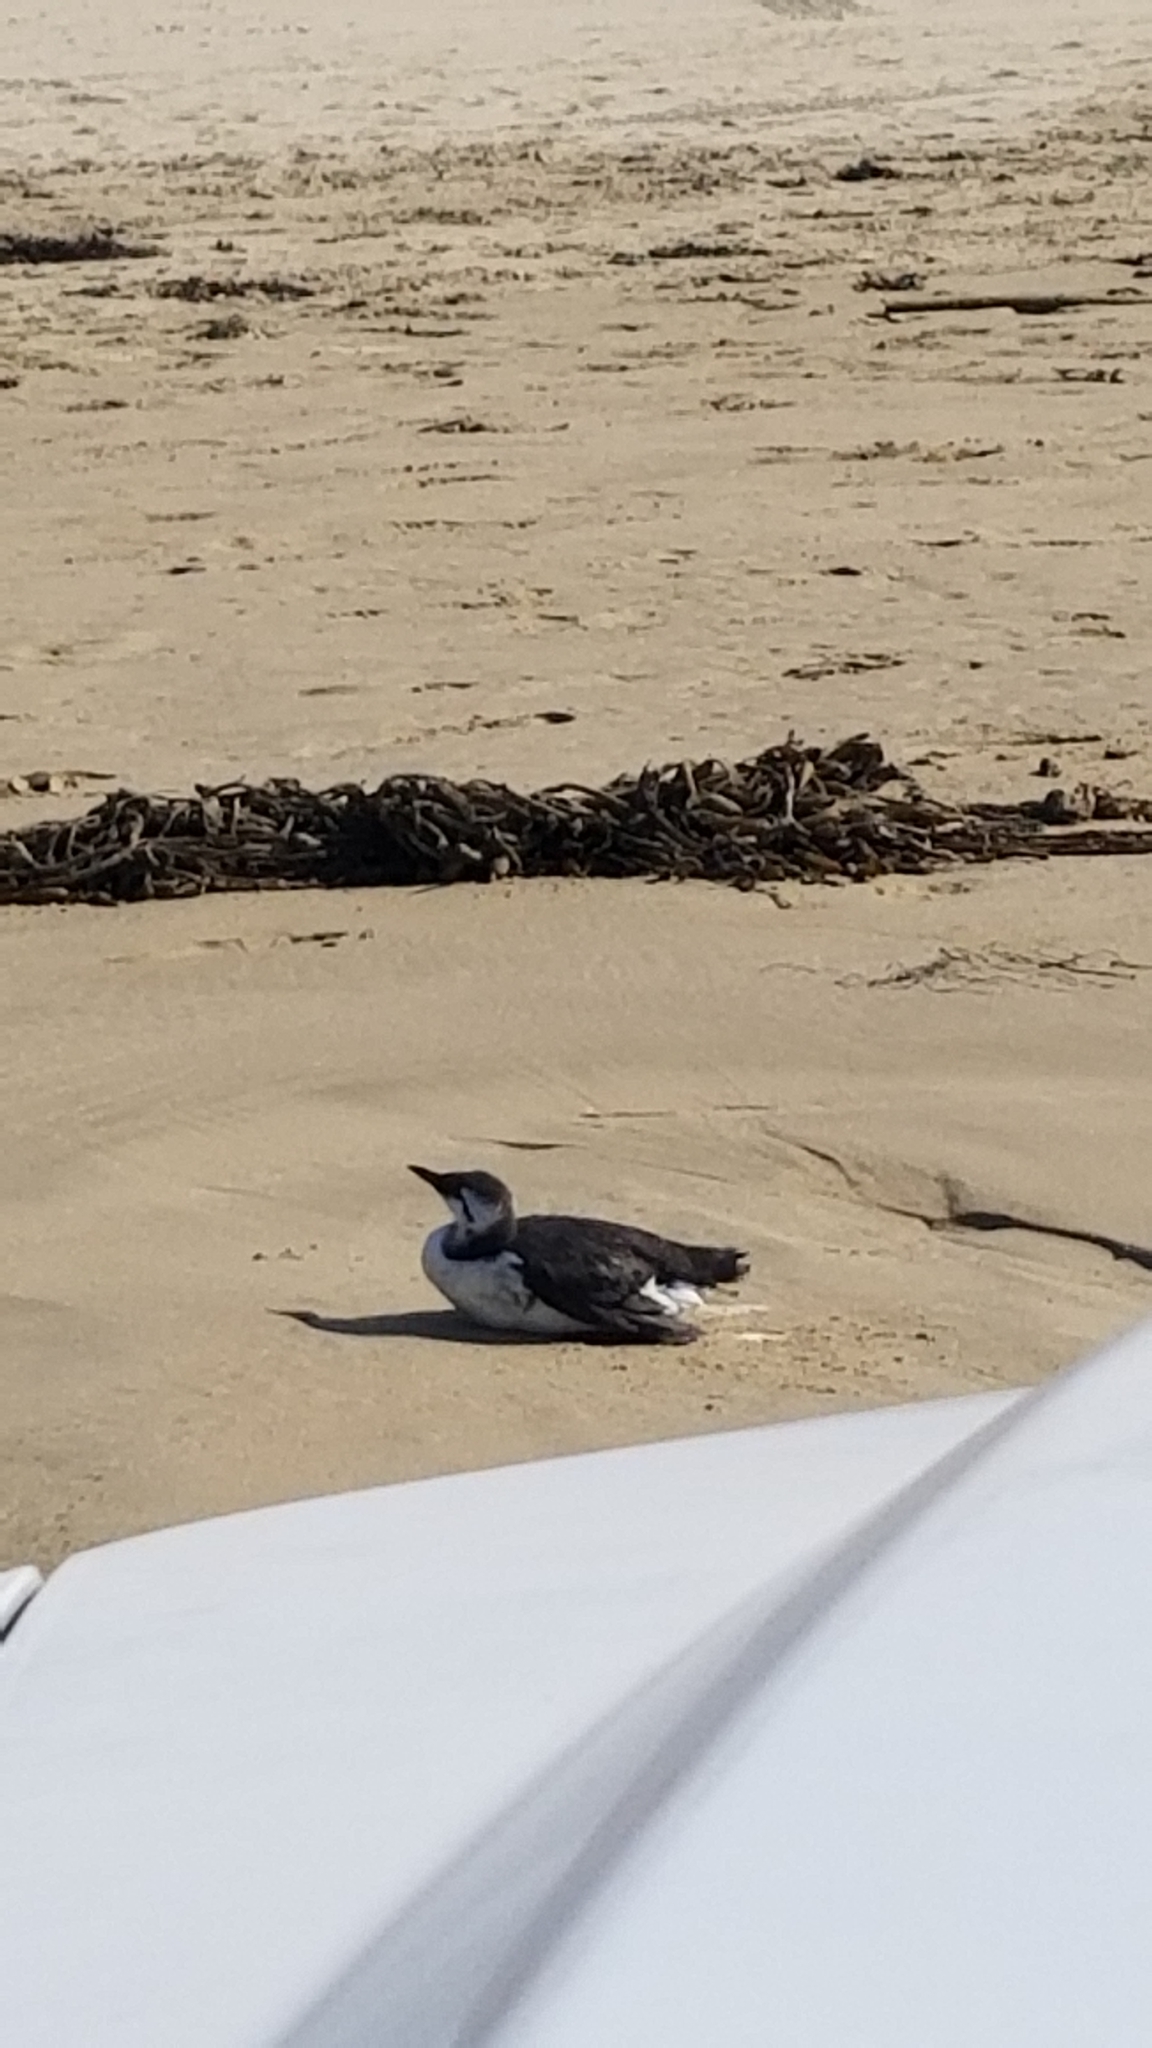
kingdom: Animalia
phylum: Chordata
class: Aves
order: Charadriiformes
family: Alcidae
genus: Uria
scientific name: Uria aalge
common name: Common murre
